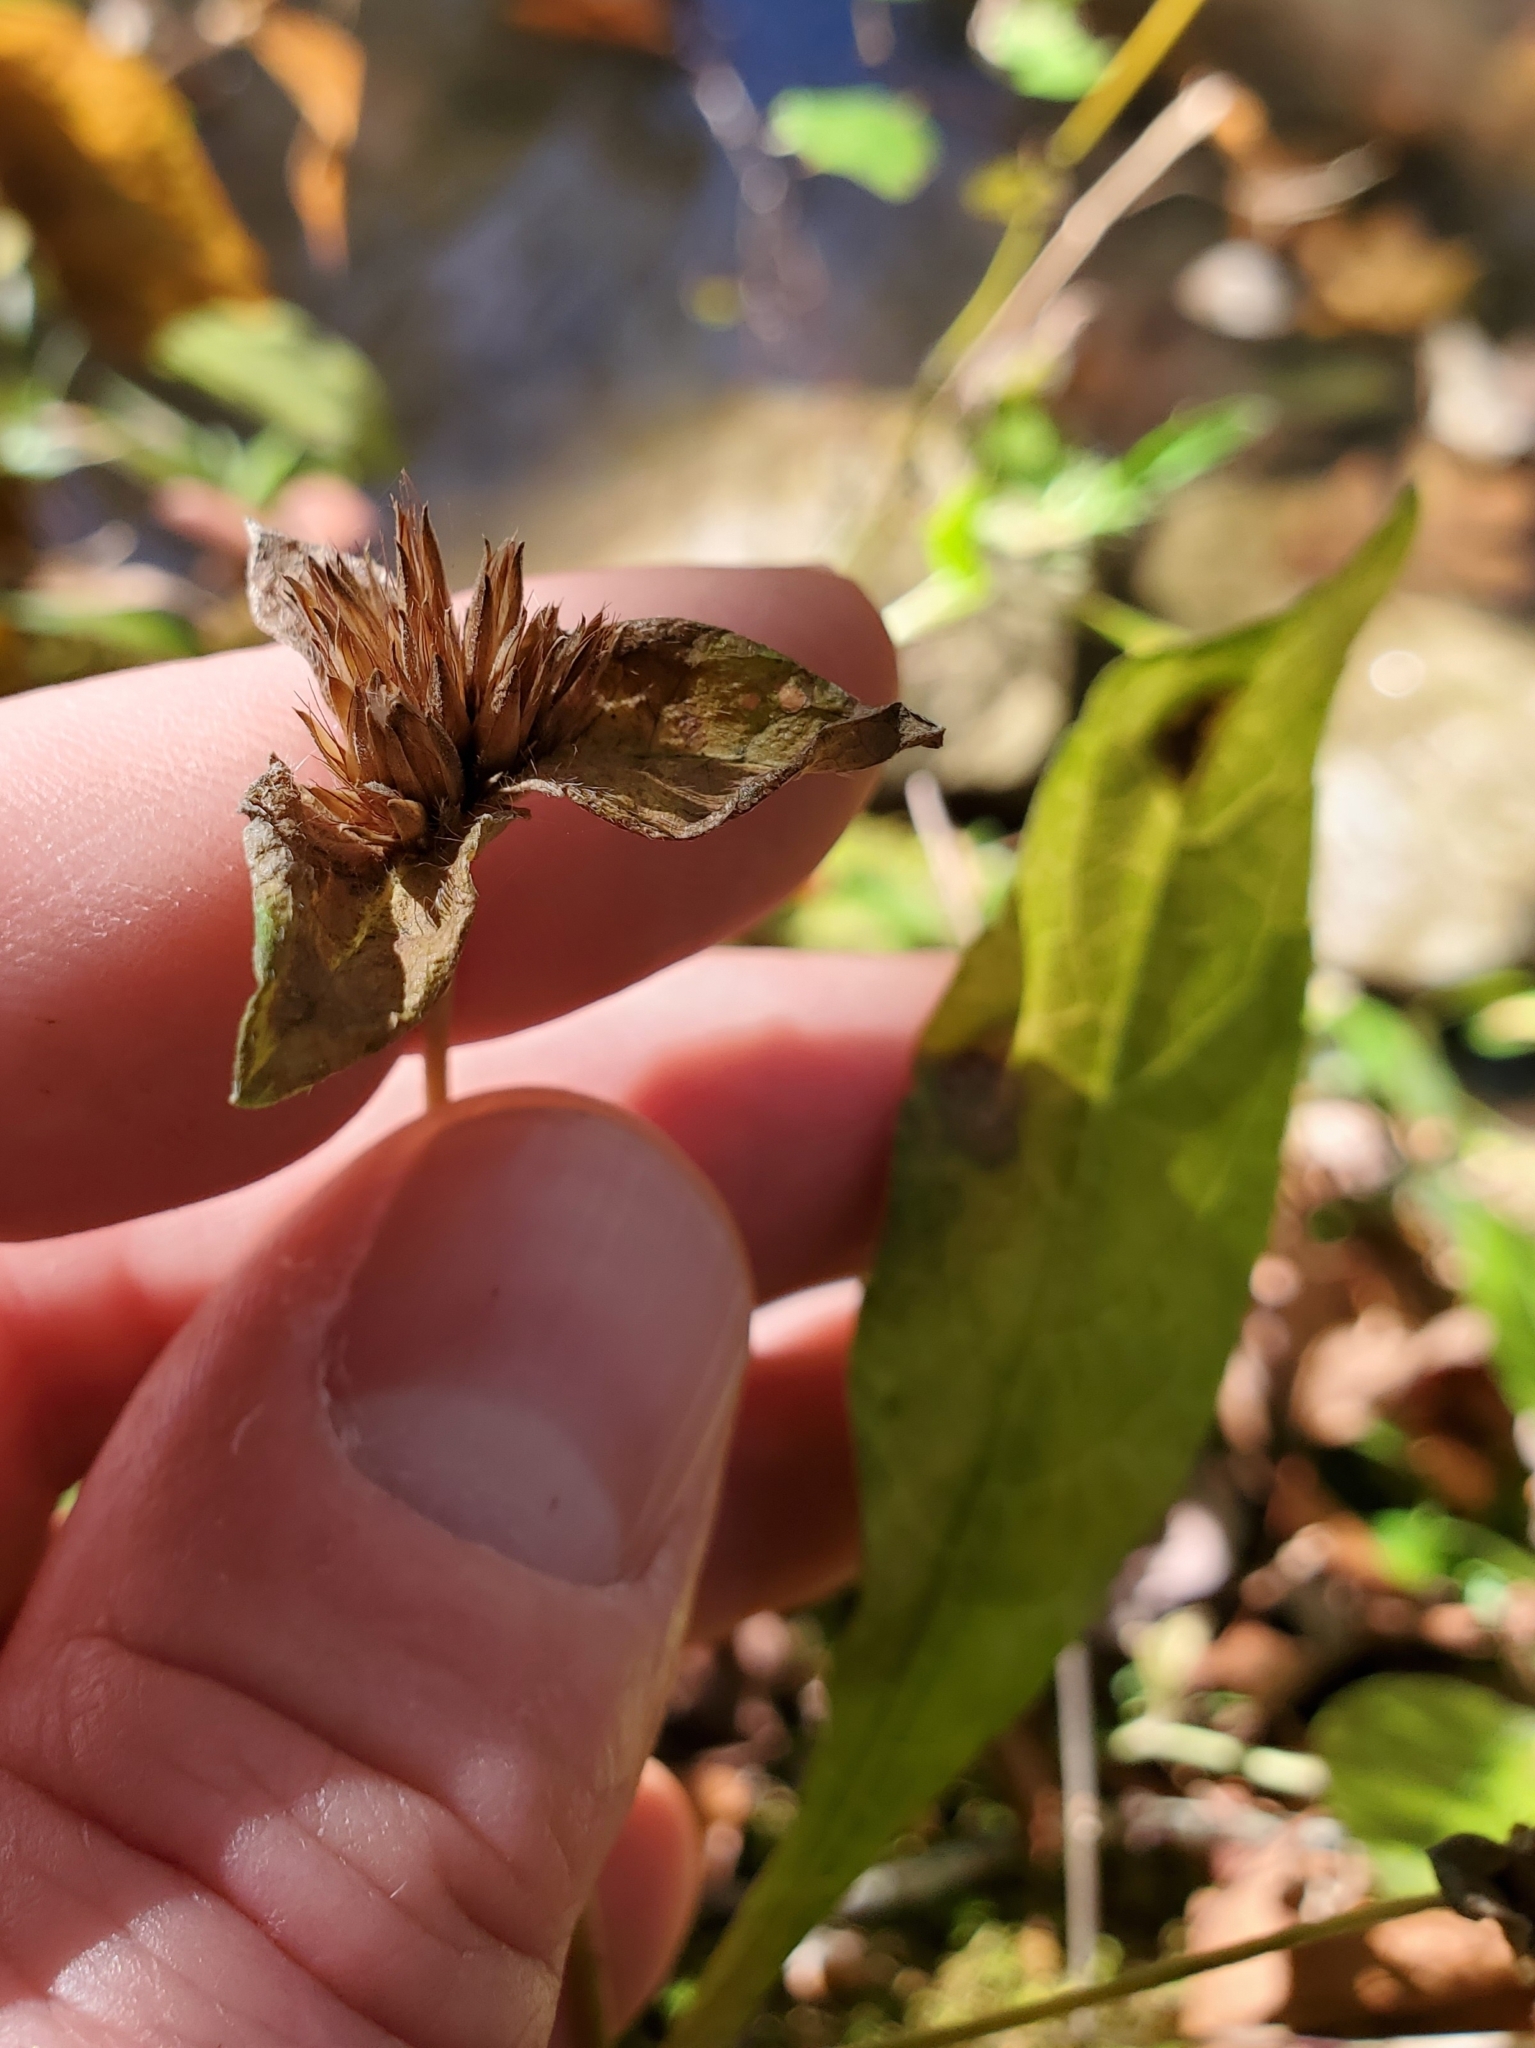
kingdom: Plantae
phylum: Tracheophyta
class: Magnoliopsida
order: Asterales
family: Asteraceae
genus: Elephantopus
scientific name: Elephantopus carolinianus
